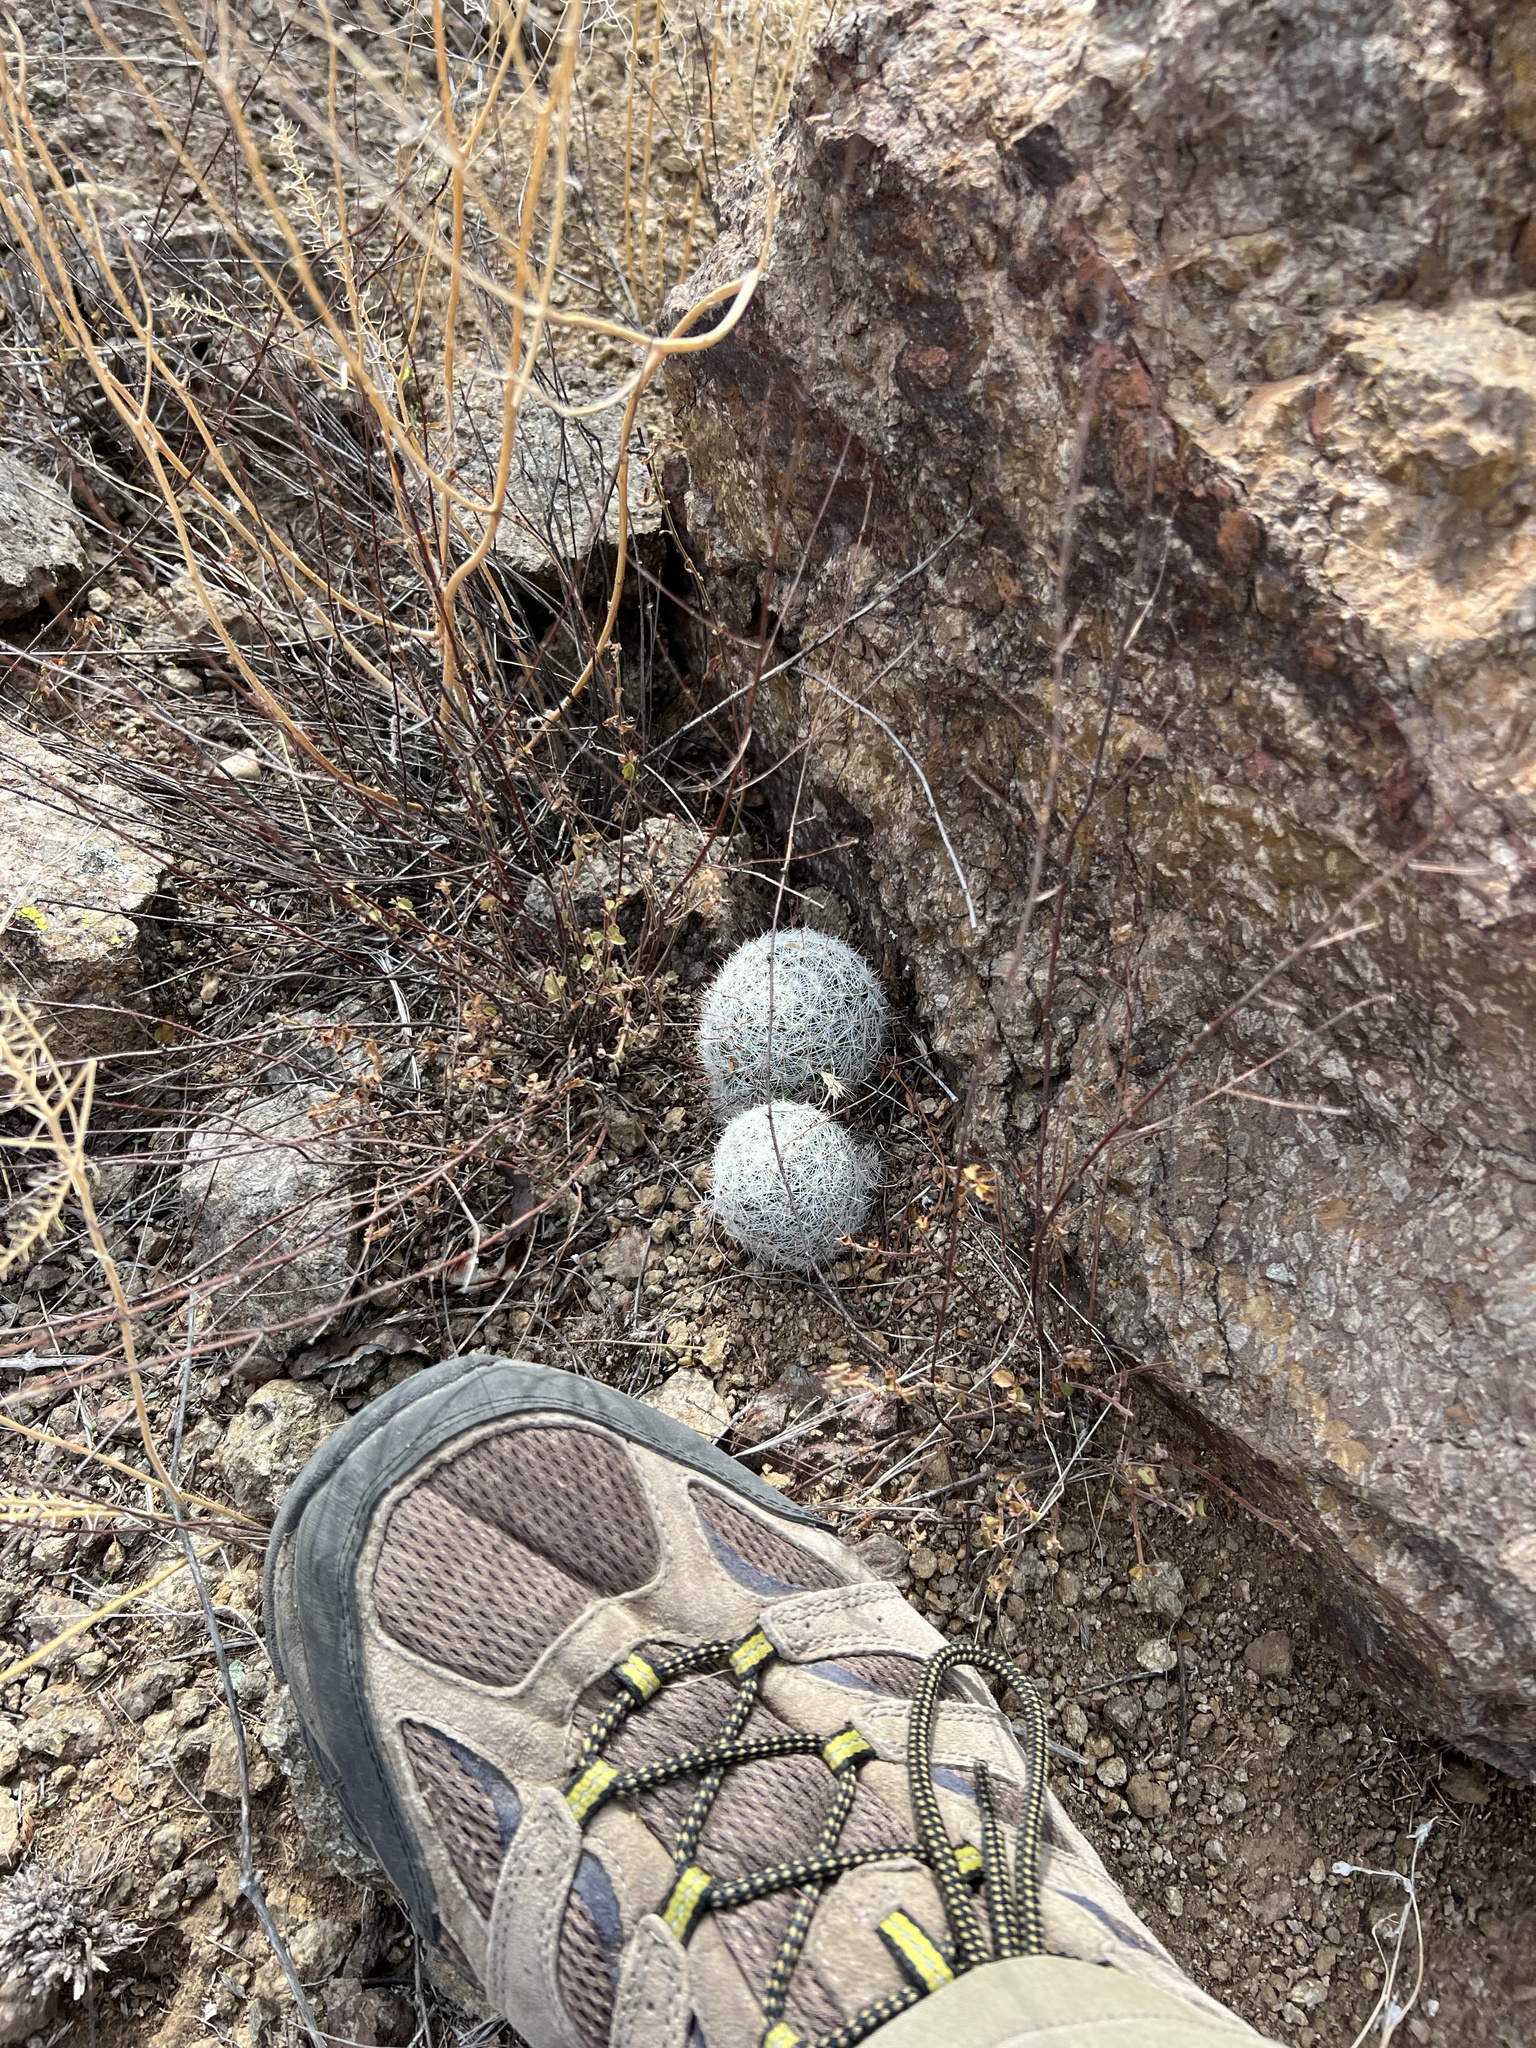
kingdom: Plantae
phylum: Tracheophyta
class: Magnoliopsida
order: Caryophyllales
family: Cactaceae
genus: Cochemiea
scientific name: Cochemiea grahamii
